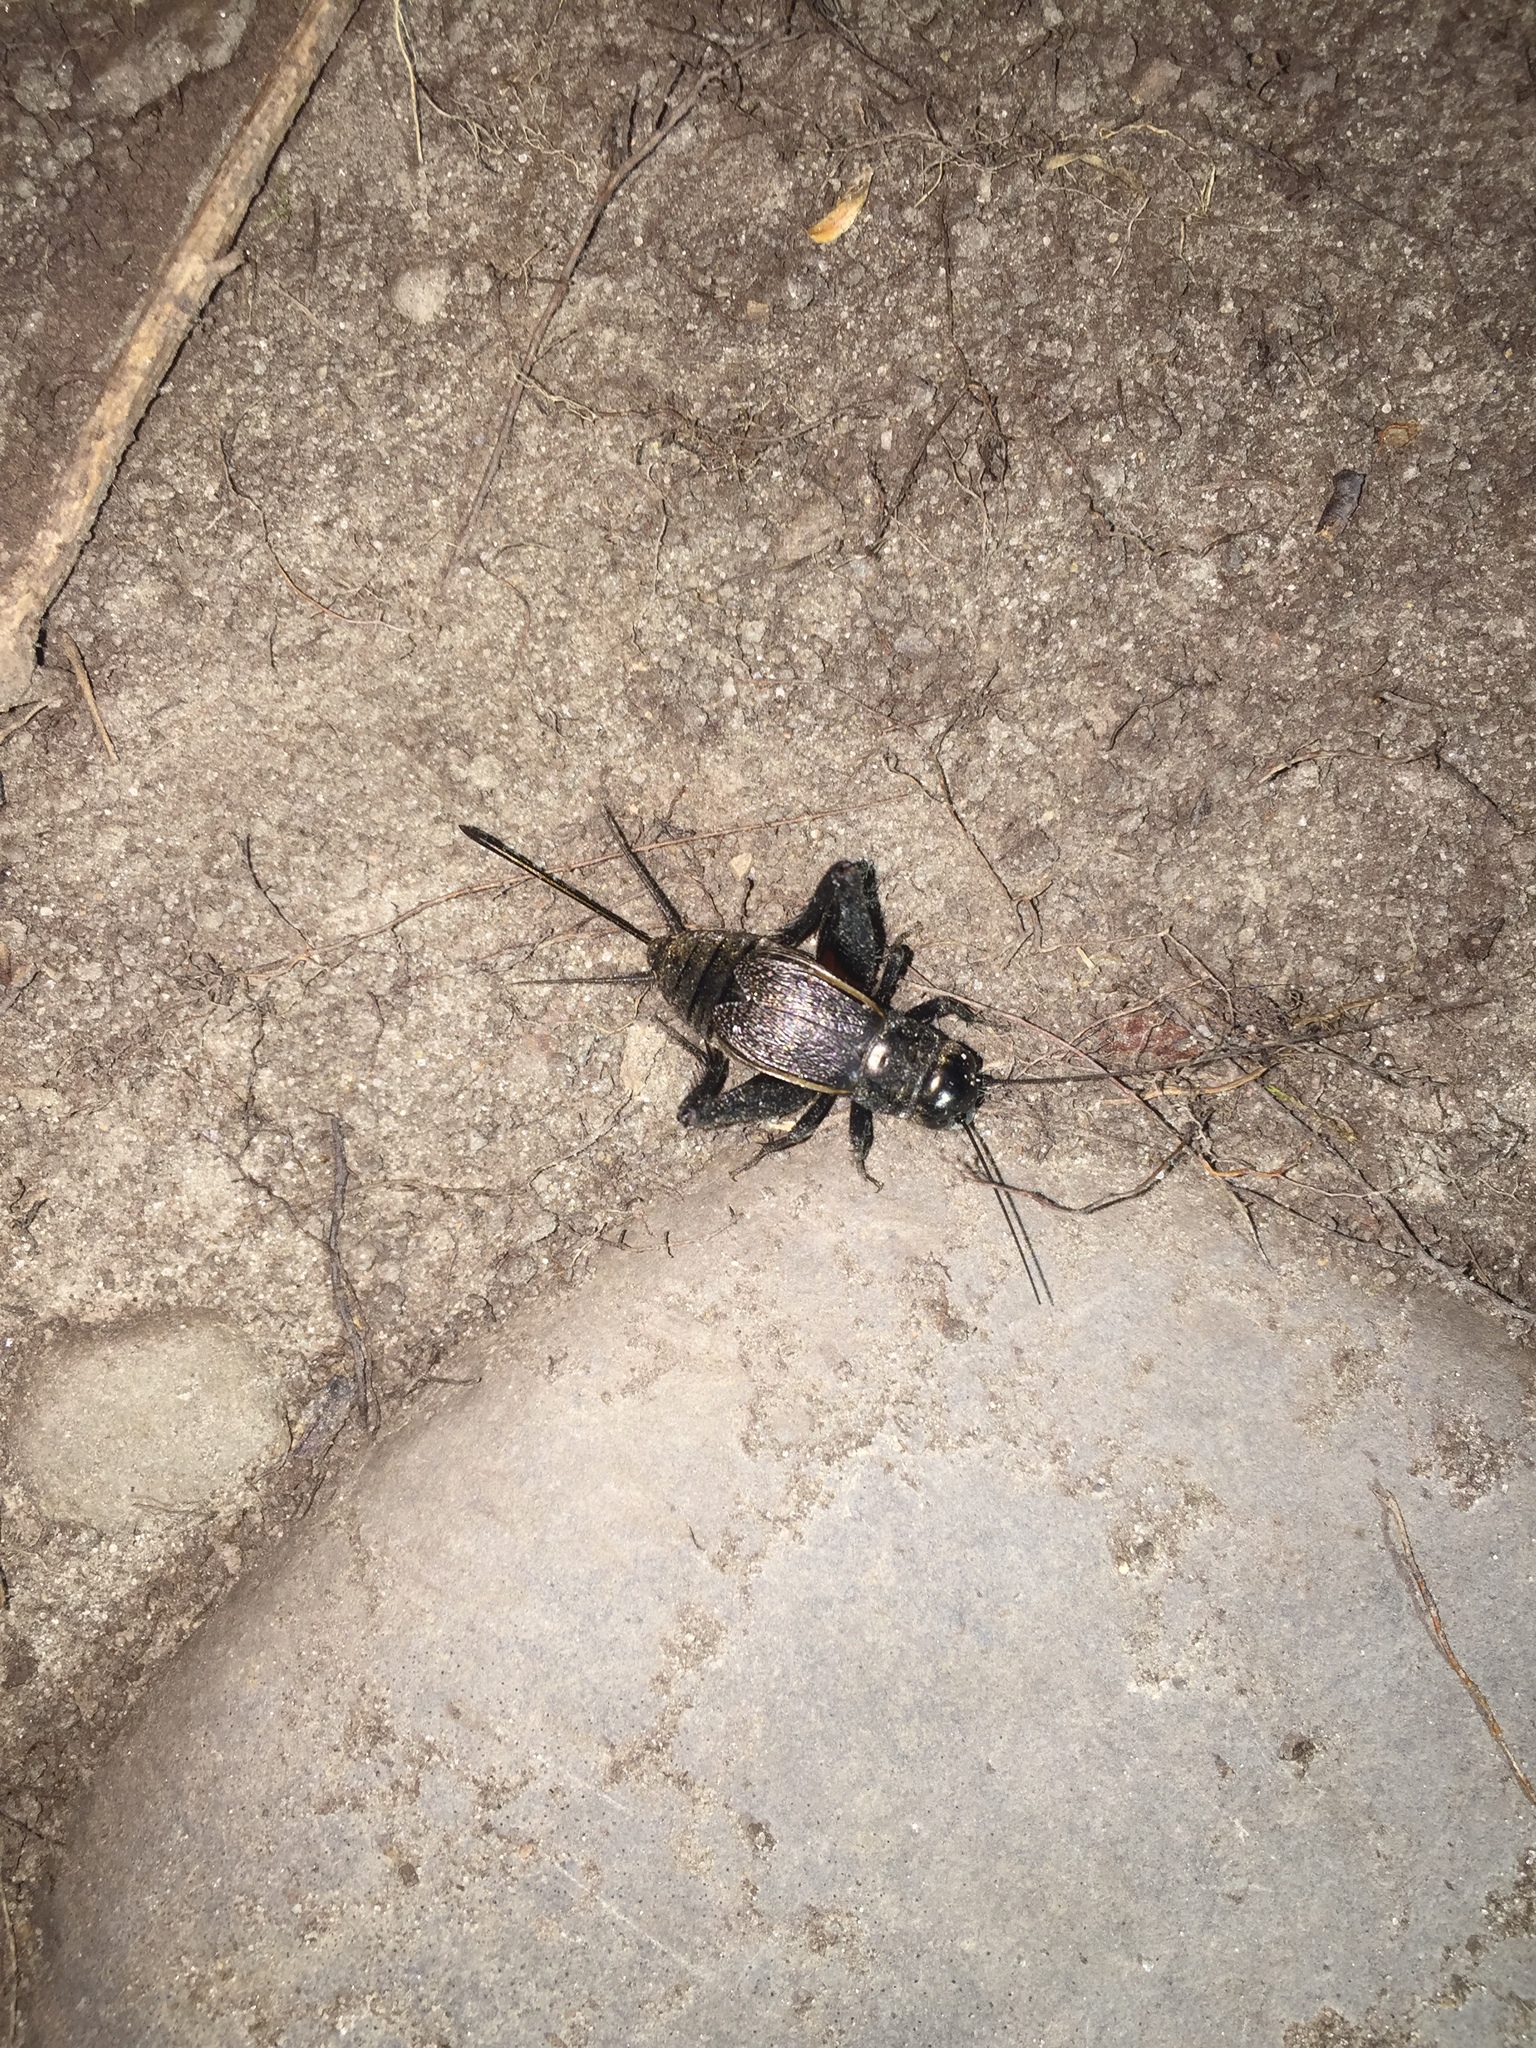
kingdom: Animalia
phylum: Arthropoda
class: Insecta
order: Orthoptera
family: Gryllidae
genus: Gryllus
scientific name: Gryllus pennsylvanicus
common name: Fall field cricket
